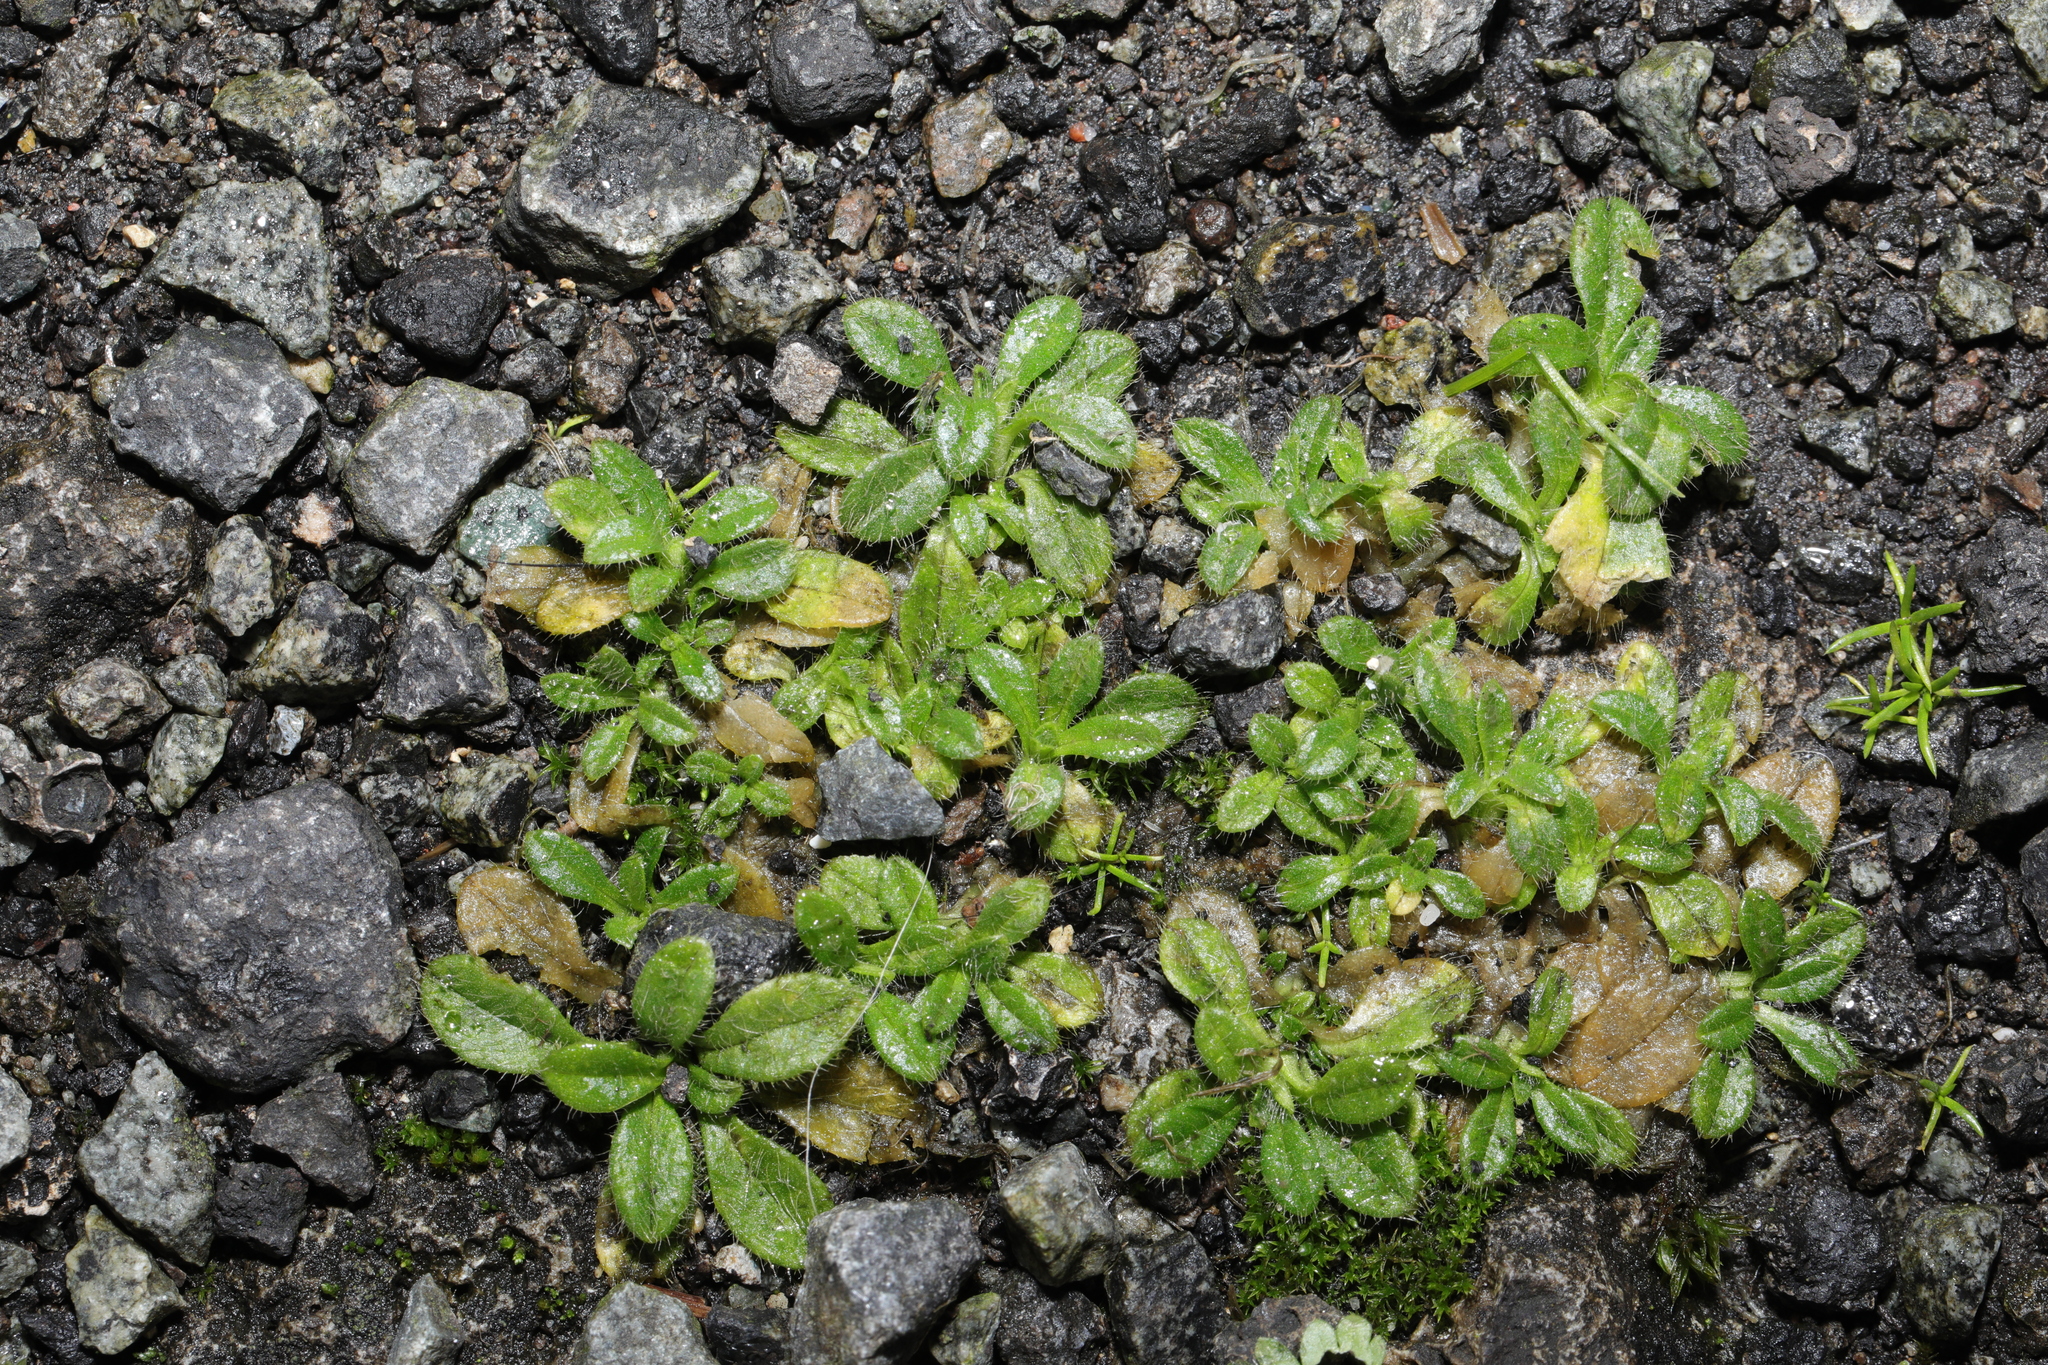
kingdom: Plantae
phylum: Tracheophyta
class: Magnoliopsida
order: Caryophyllales
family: Caryophyllaceae
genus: Cerastium
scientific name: Cerastium fontanum
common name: Common mouse-ear
